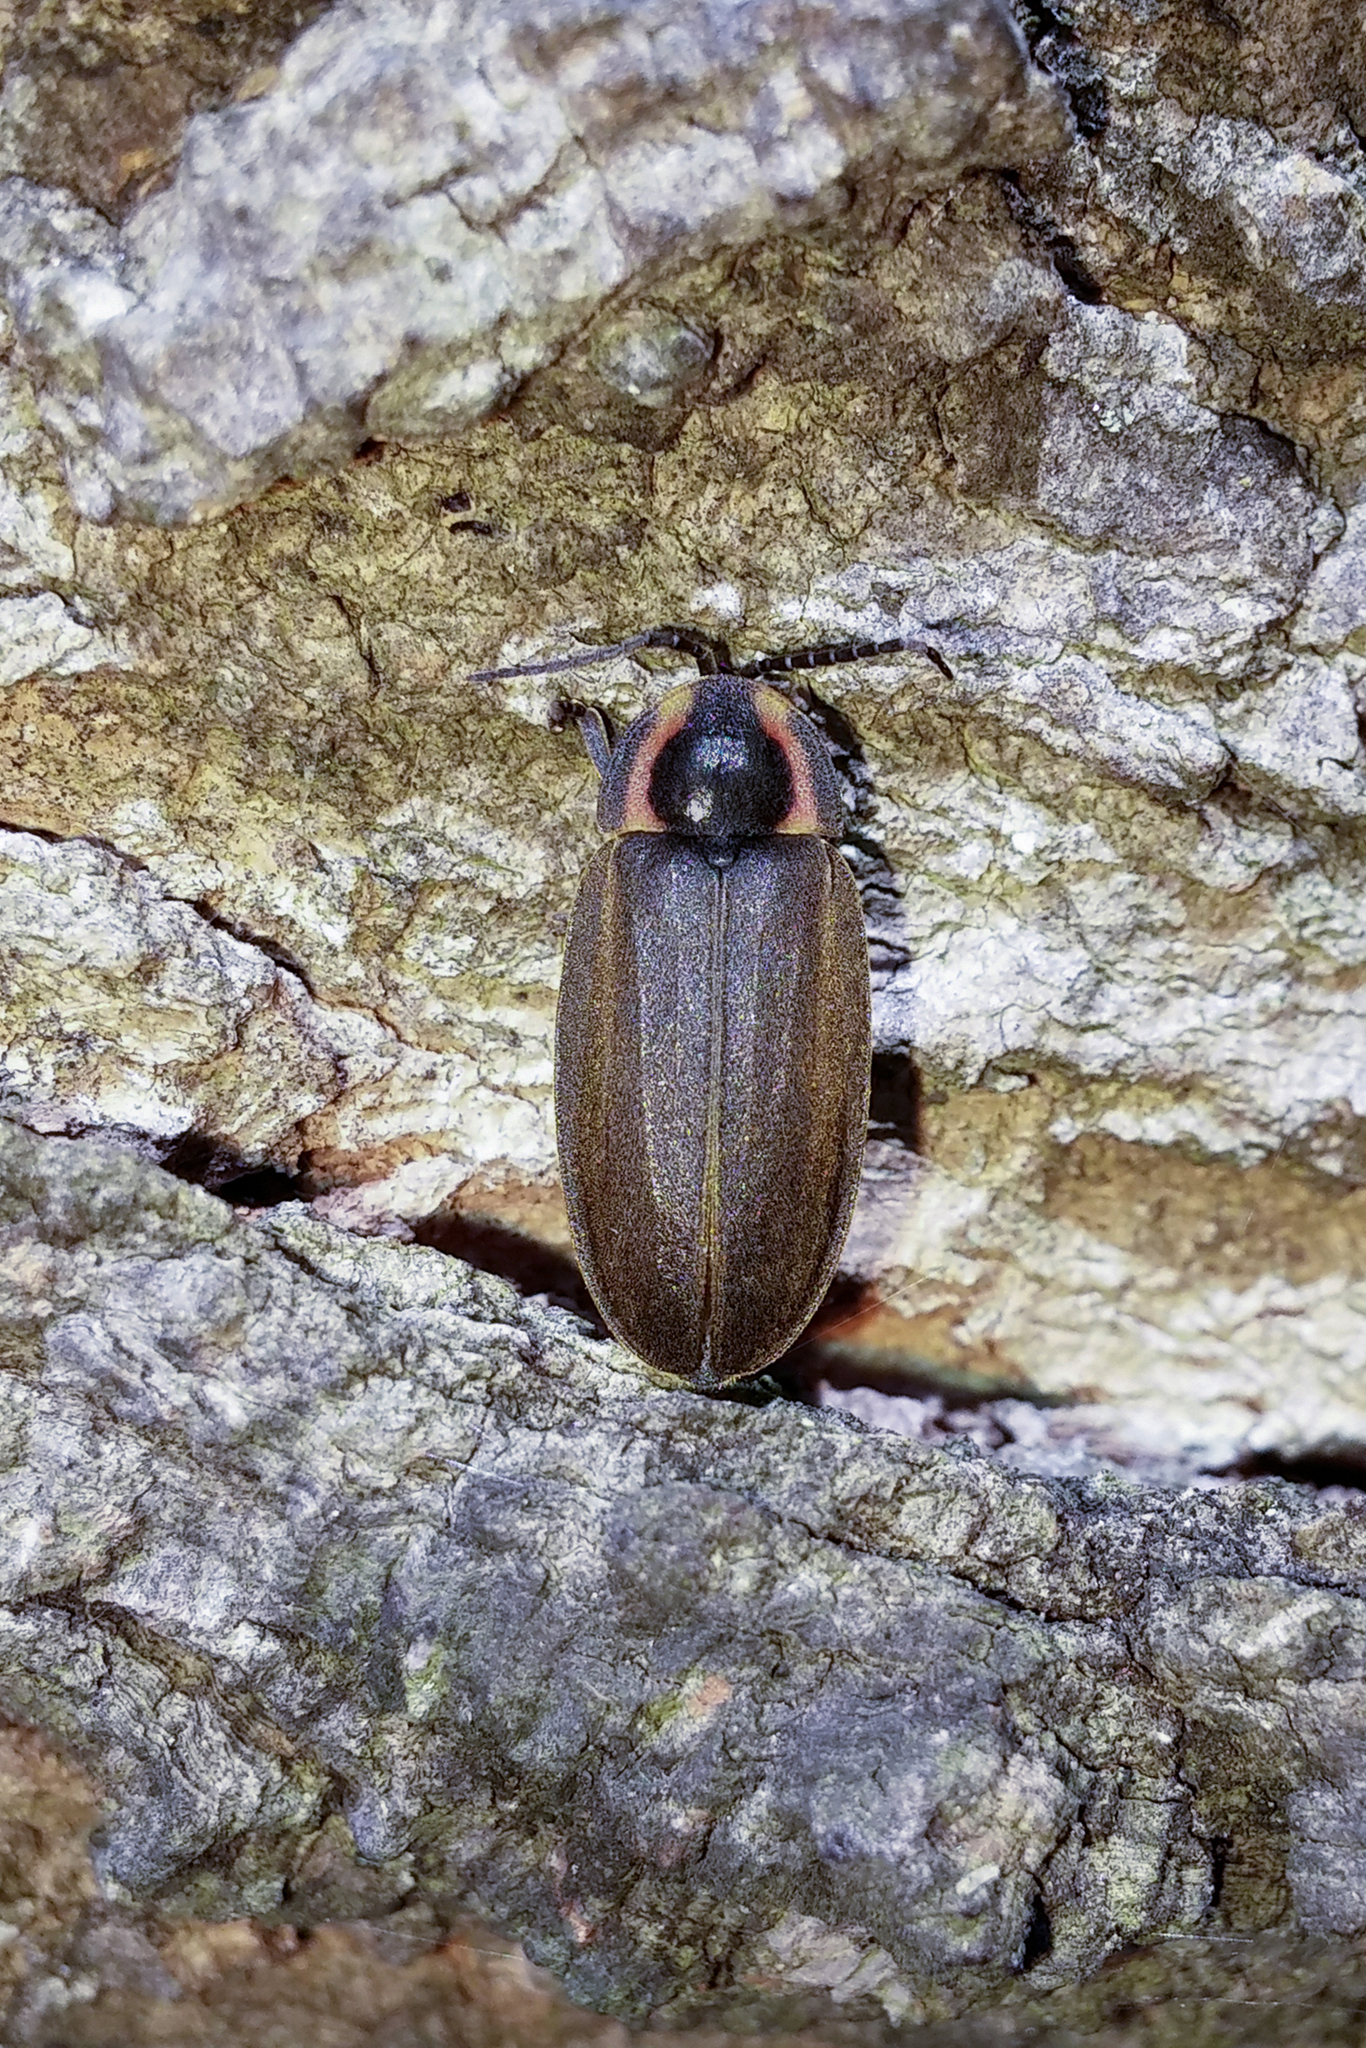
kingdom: Animalia
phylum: Arthropoda
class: Insecta
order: Coleoptera
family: Lampyridae
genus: Photinus
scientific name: Photinus corrusca
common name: Winter firefly
